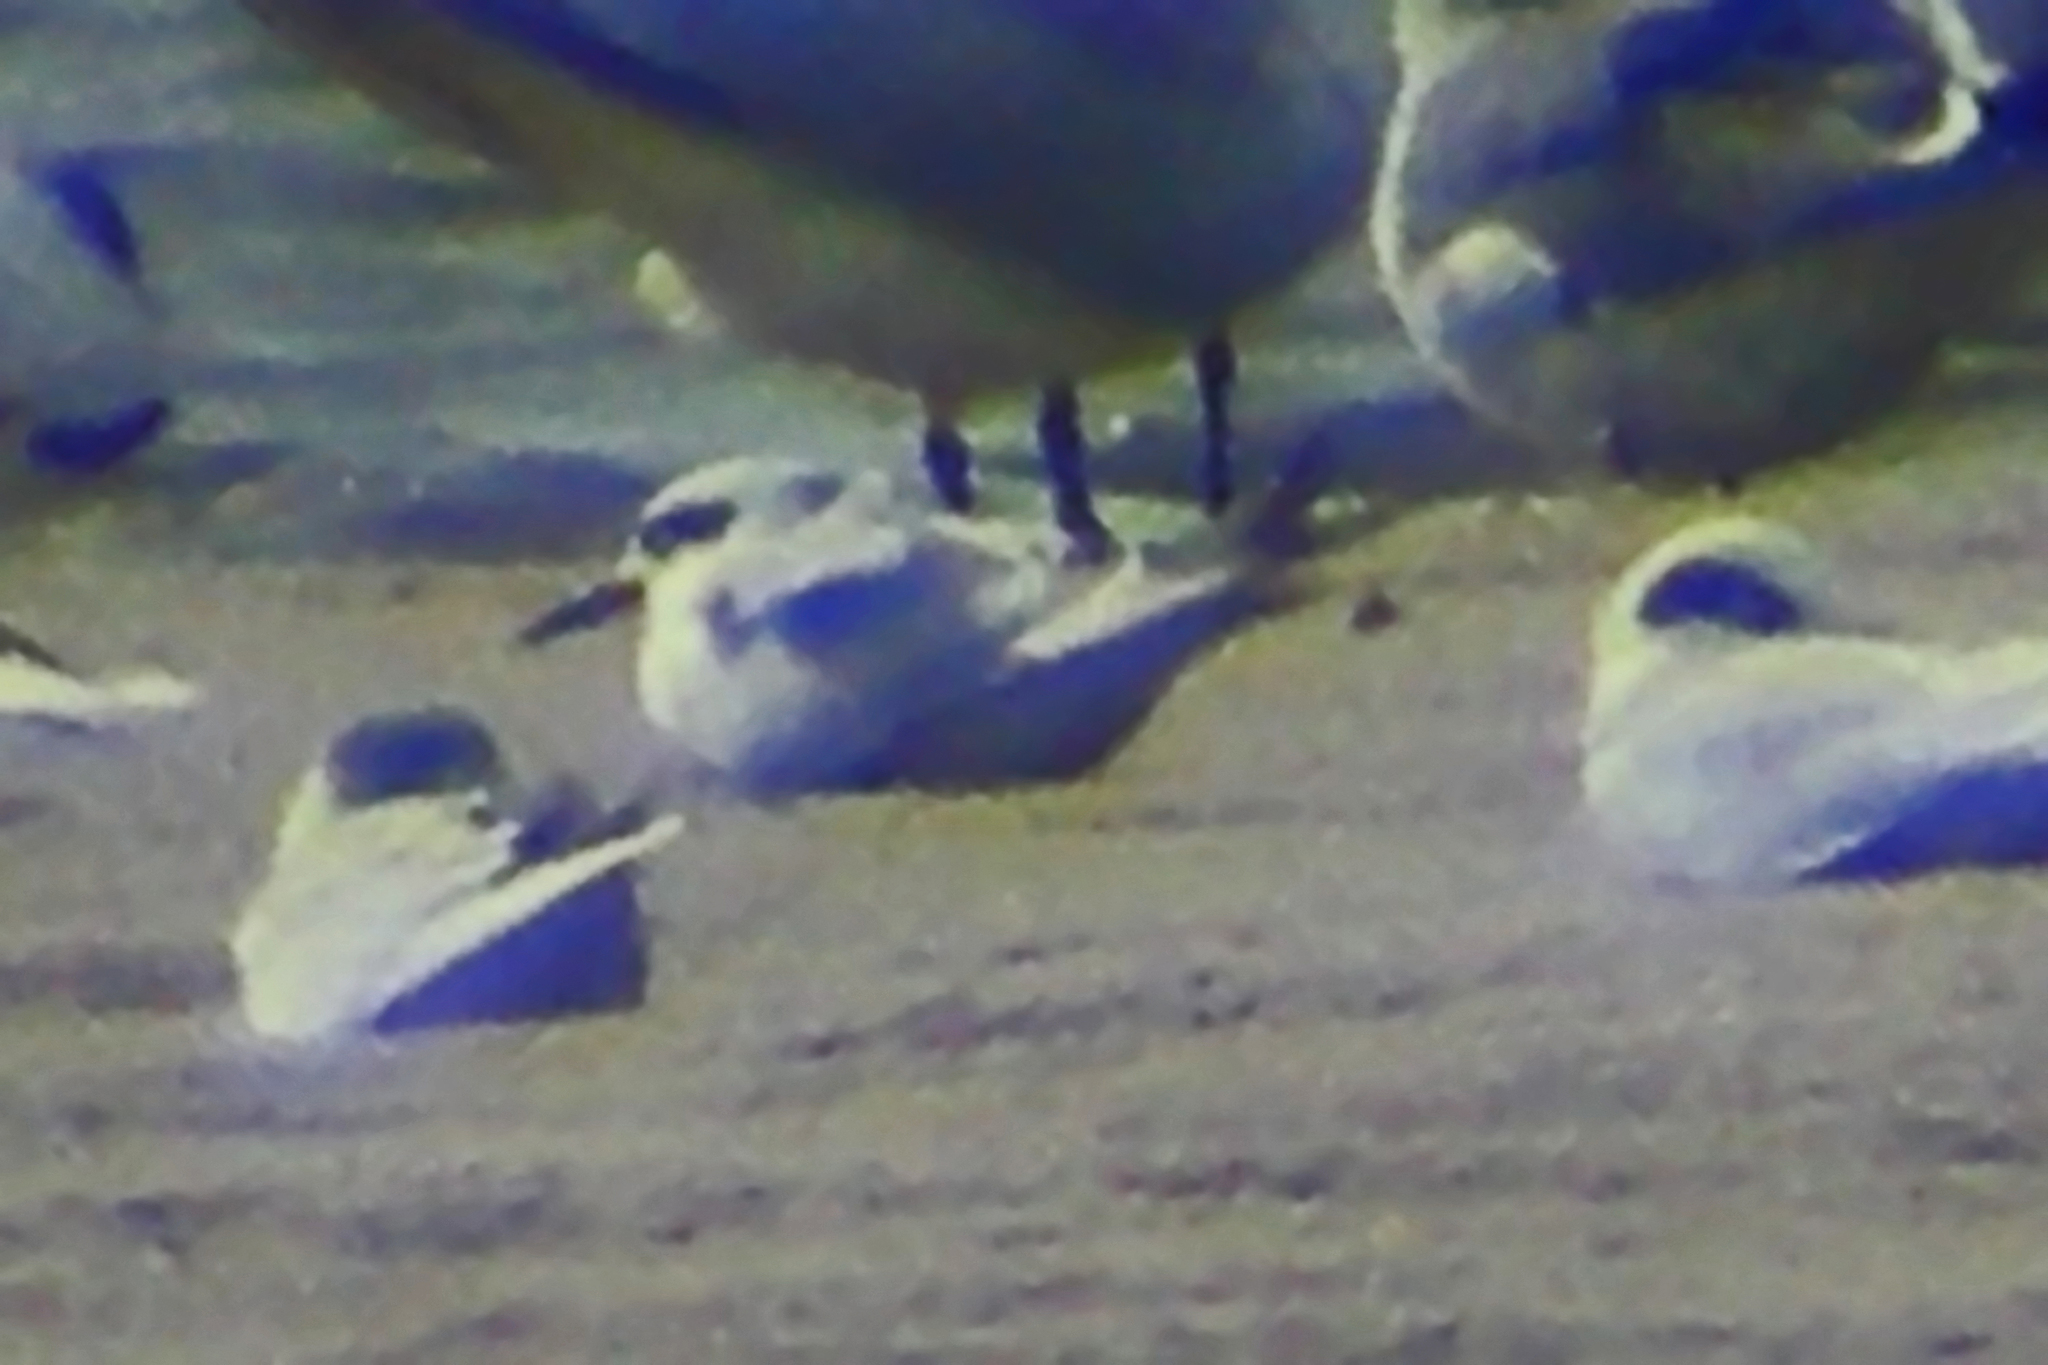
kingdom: Animalia
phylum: Chordata
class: Aves
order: Charadriiformes
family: Laridae
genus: Sterna
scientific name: Sterna forsteri
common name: Forster's tern
